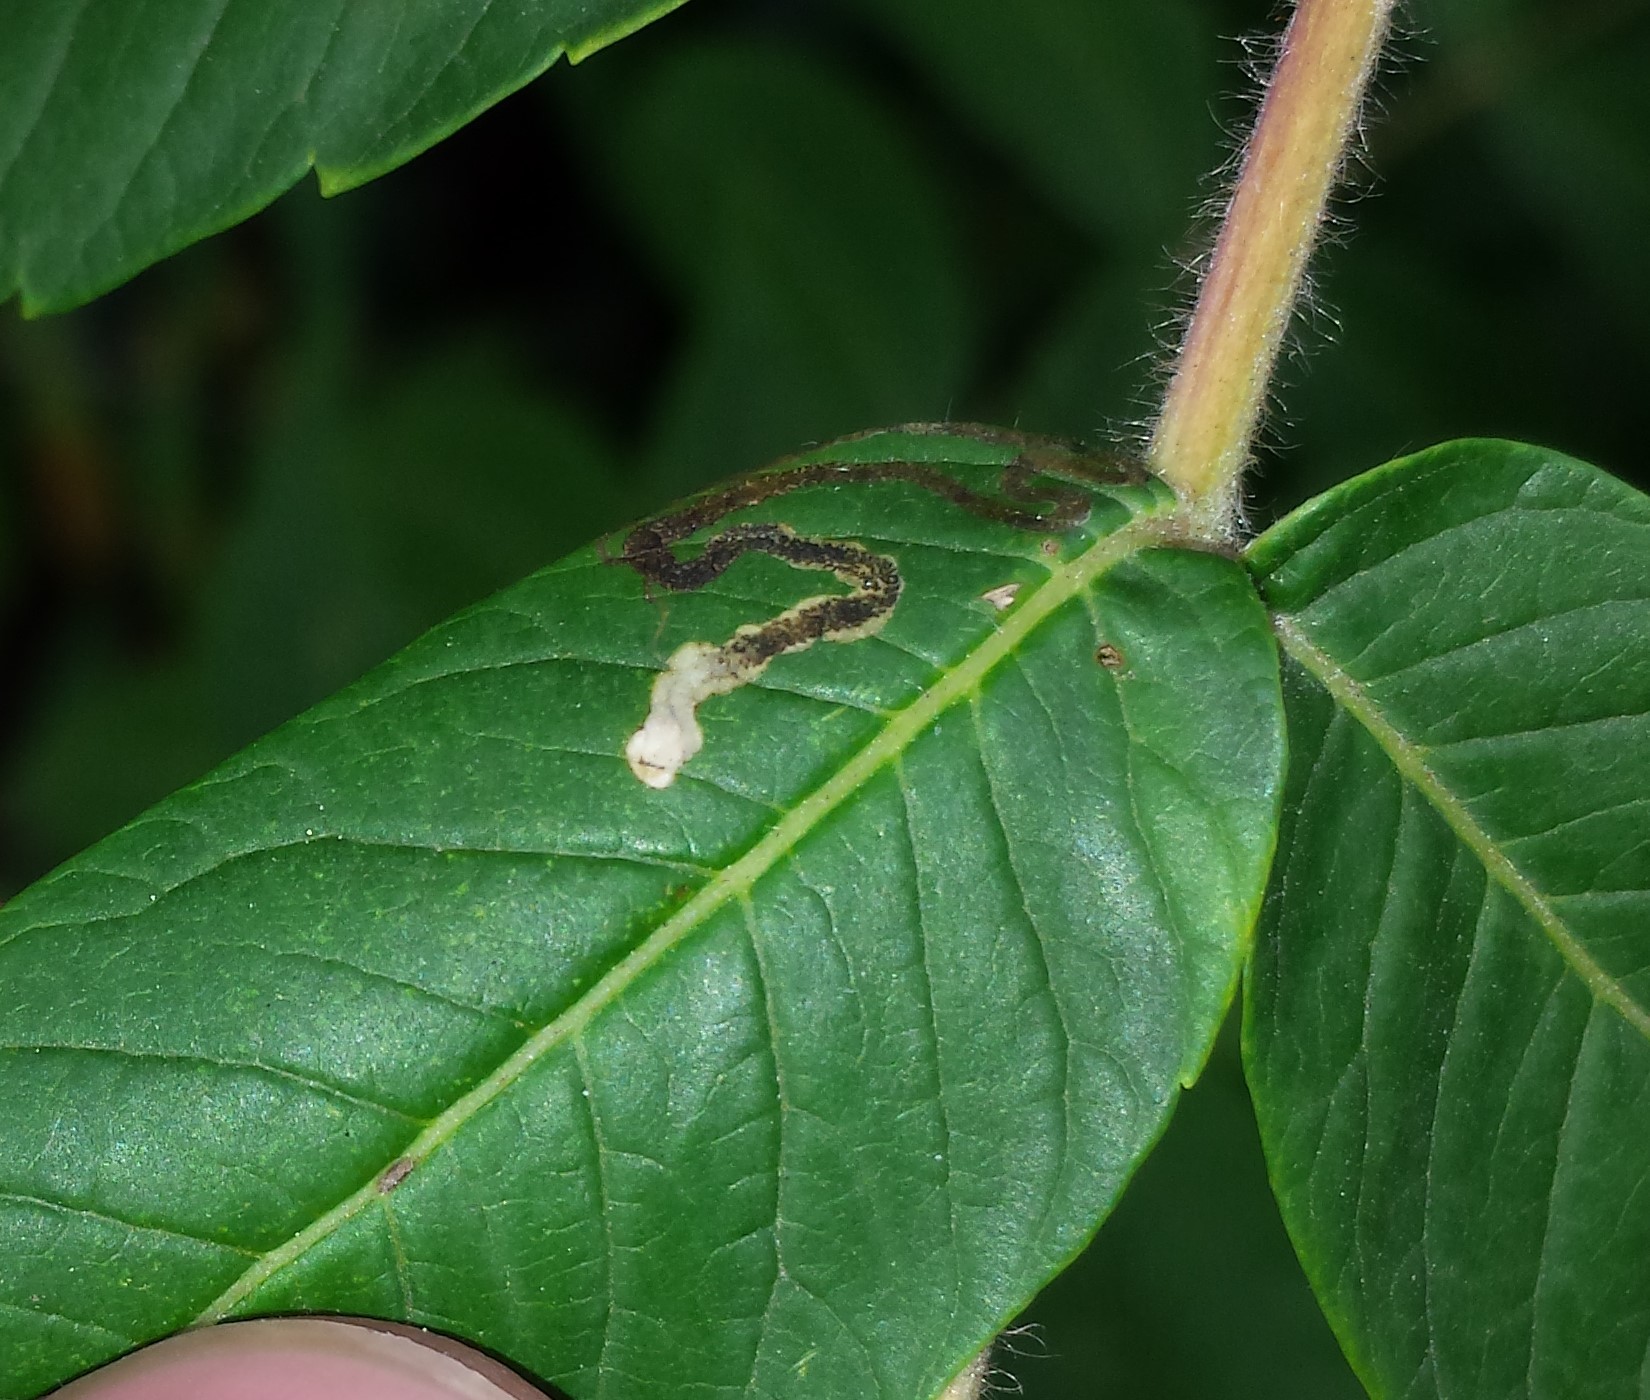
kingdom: Animalia
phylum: Arthropoda
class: Insecta
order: Lepidoptera
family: Nepticulidae
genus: Stigmella
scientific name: Stigmella intermedia
